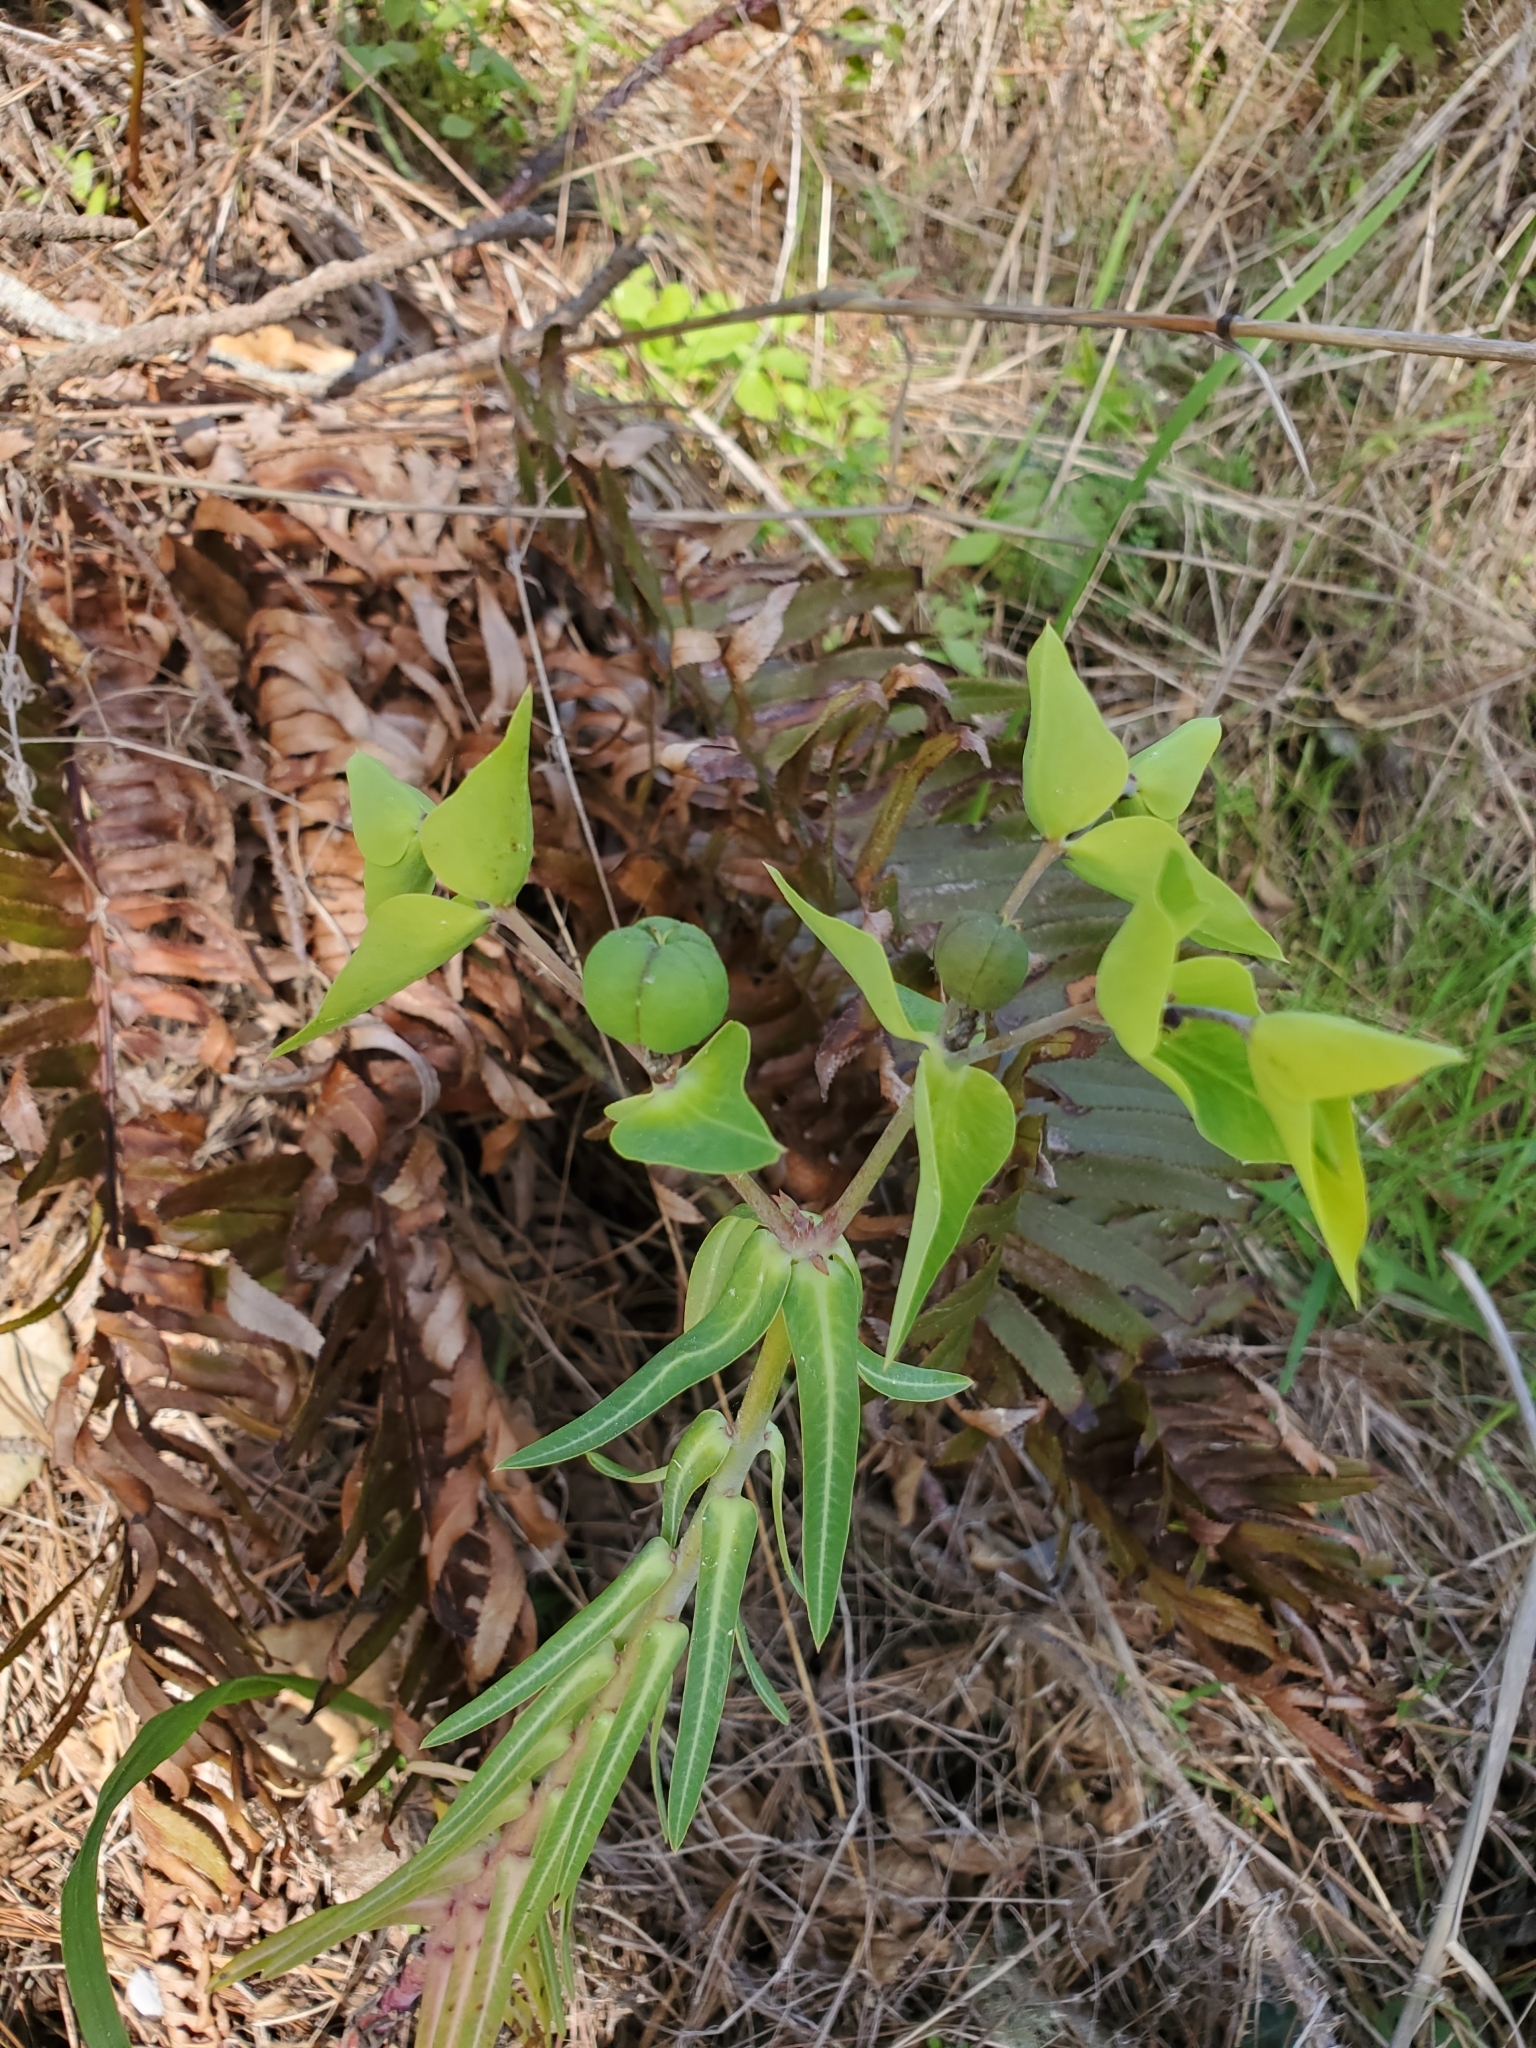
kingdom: Plantae
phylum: Tracheophyta
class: Magnoliopsida
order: Malpighiales
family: Euphorbiaceae
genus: Euphorbia
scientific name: Euphorbia lathyris
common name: Caper spurge
